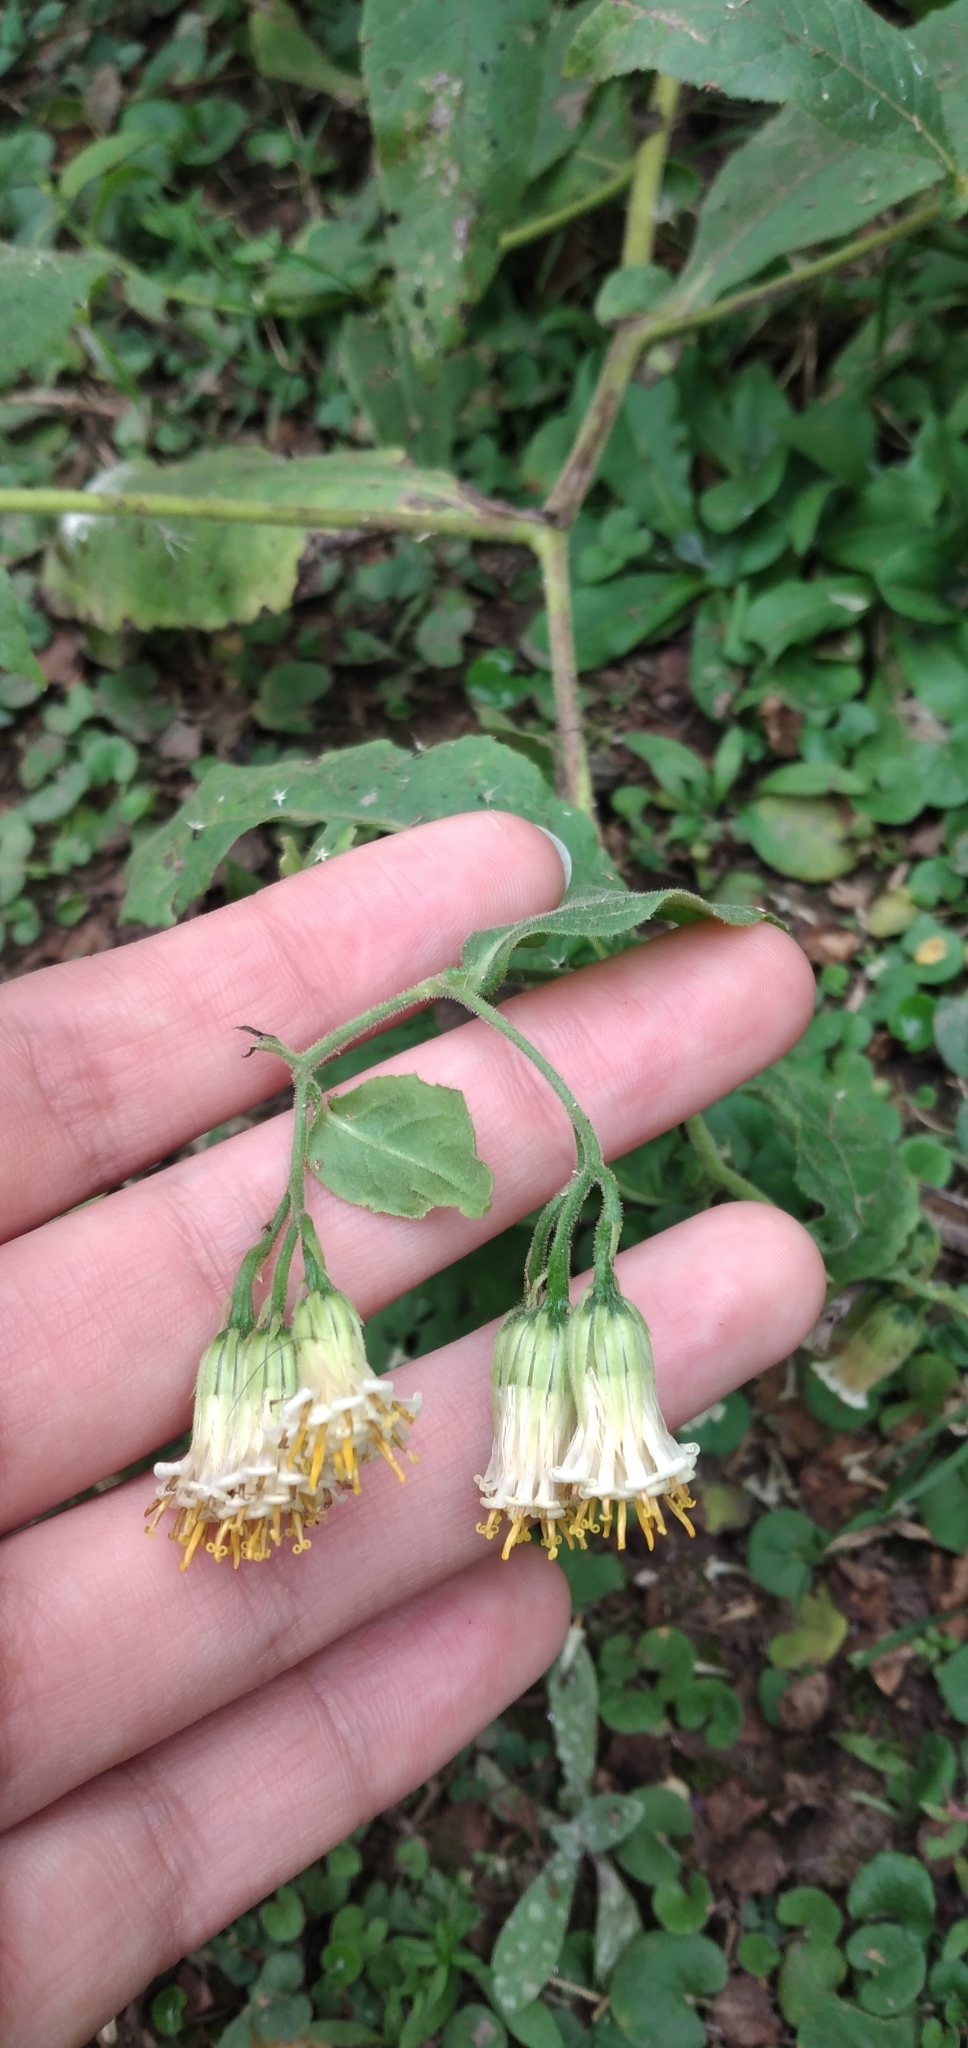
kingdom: Plantae
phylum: Tracheophyta
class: Magnoliopsida
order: Asterales
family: Asteraceae
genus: Trixis
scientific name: Trixis grisebachii
